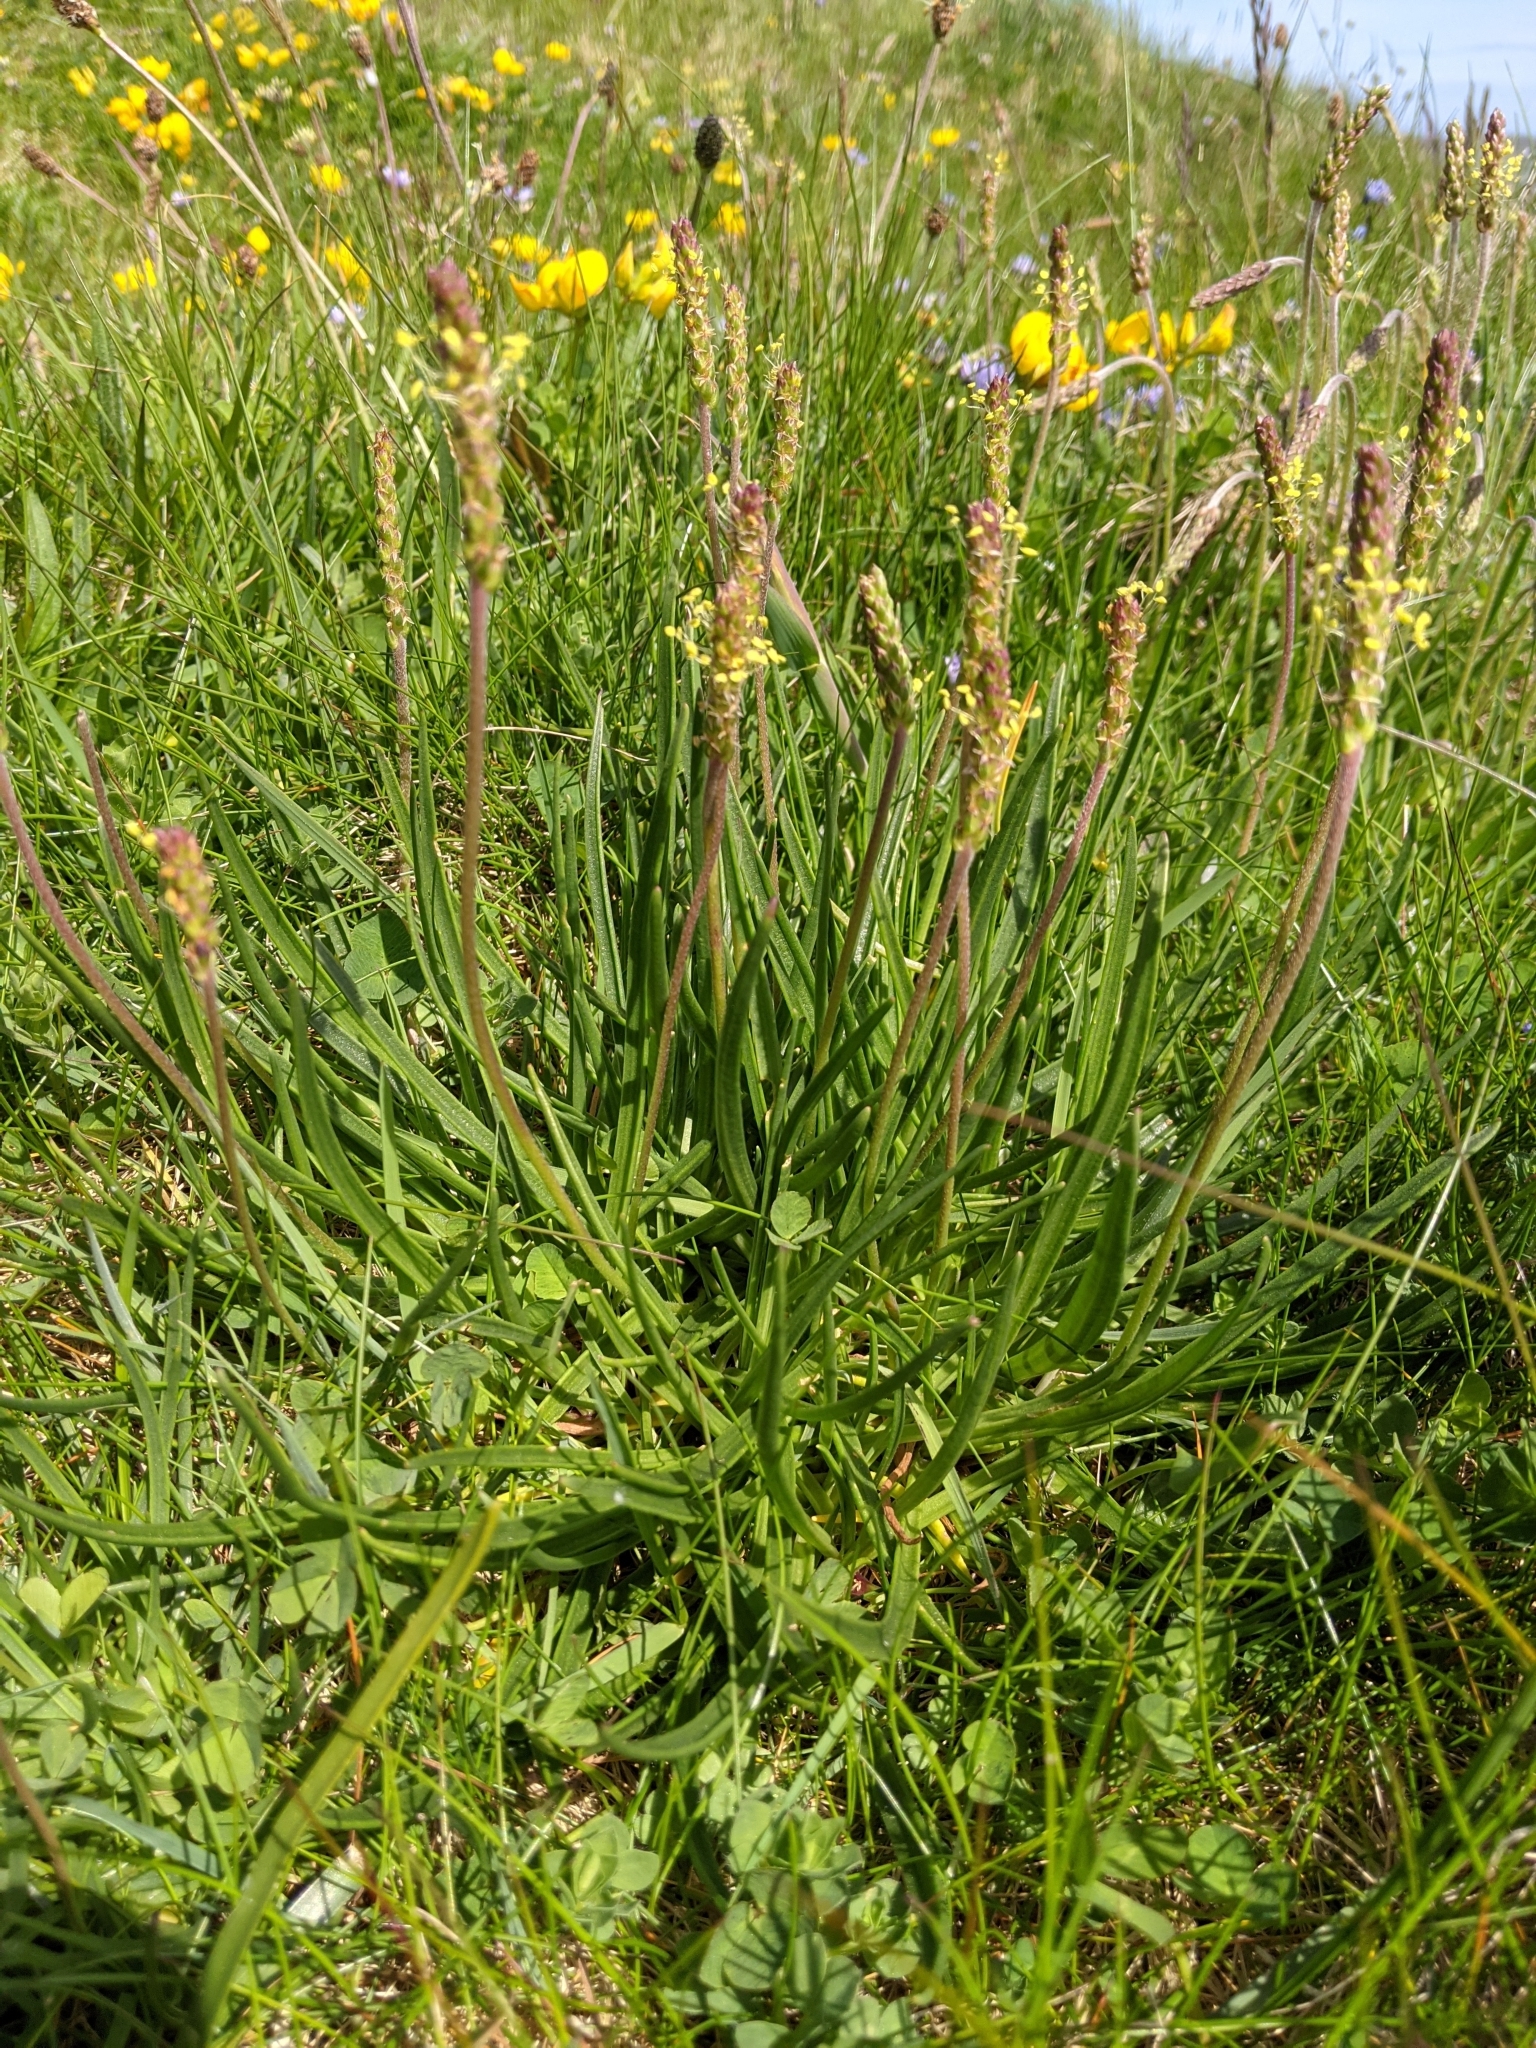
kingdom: Plantae
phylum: Tracheophyta
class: Magnoliopsida
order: Lamiales
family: Plantaginaceae
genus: Plantago
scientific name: Plantago maritima
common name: Sea plantain
